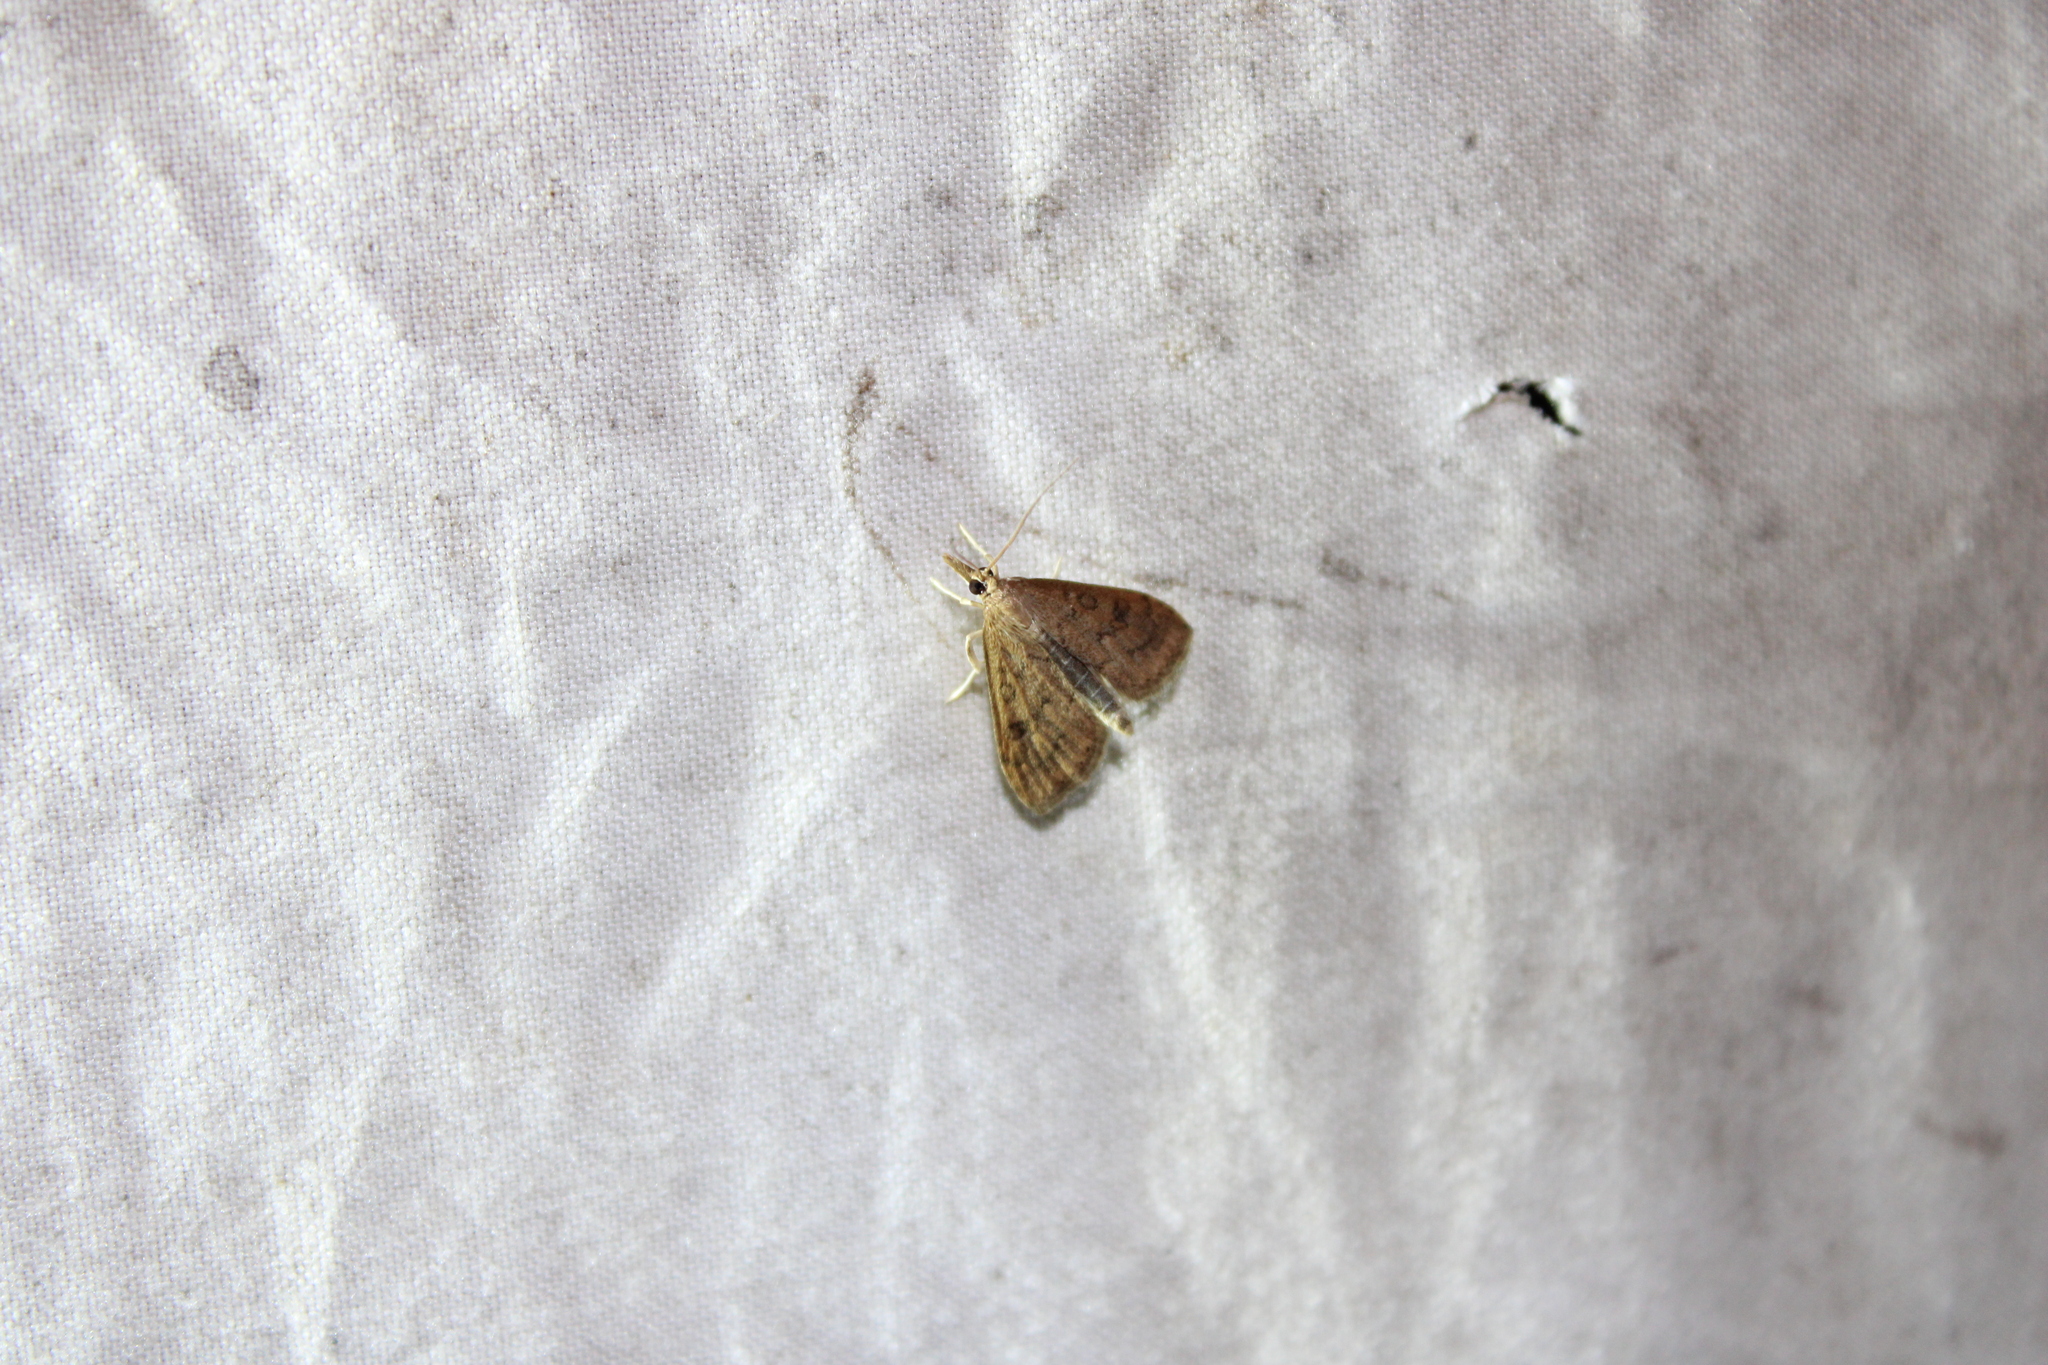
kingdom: Animalia
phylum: Arthropoda
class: Insecta
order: Lepidoptera
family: Crambidae
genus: Udea
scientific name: Udea rubigalis
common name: Celery leaftier moth
